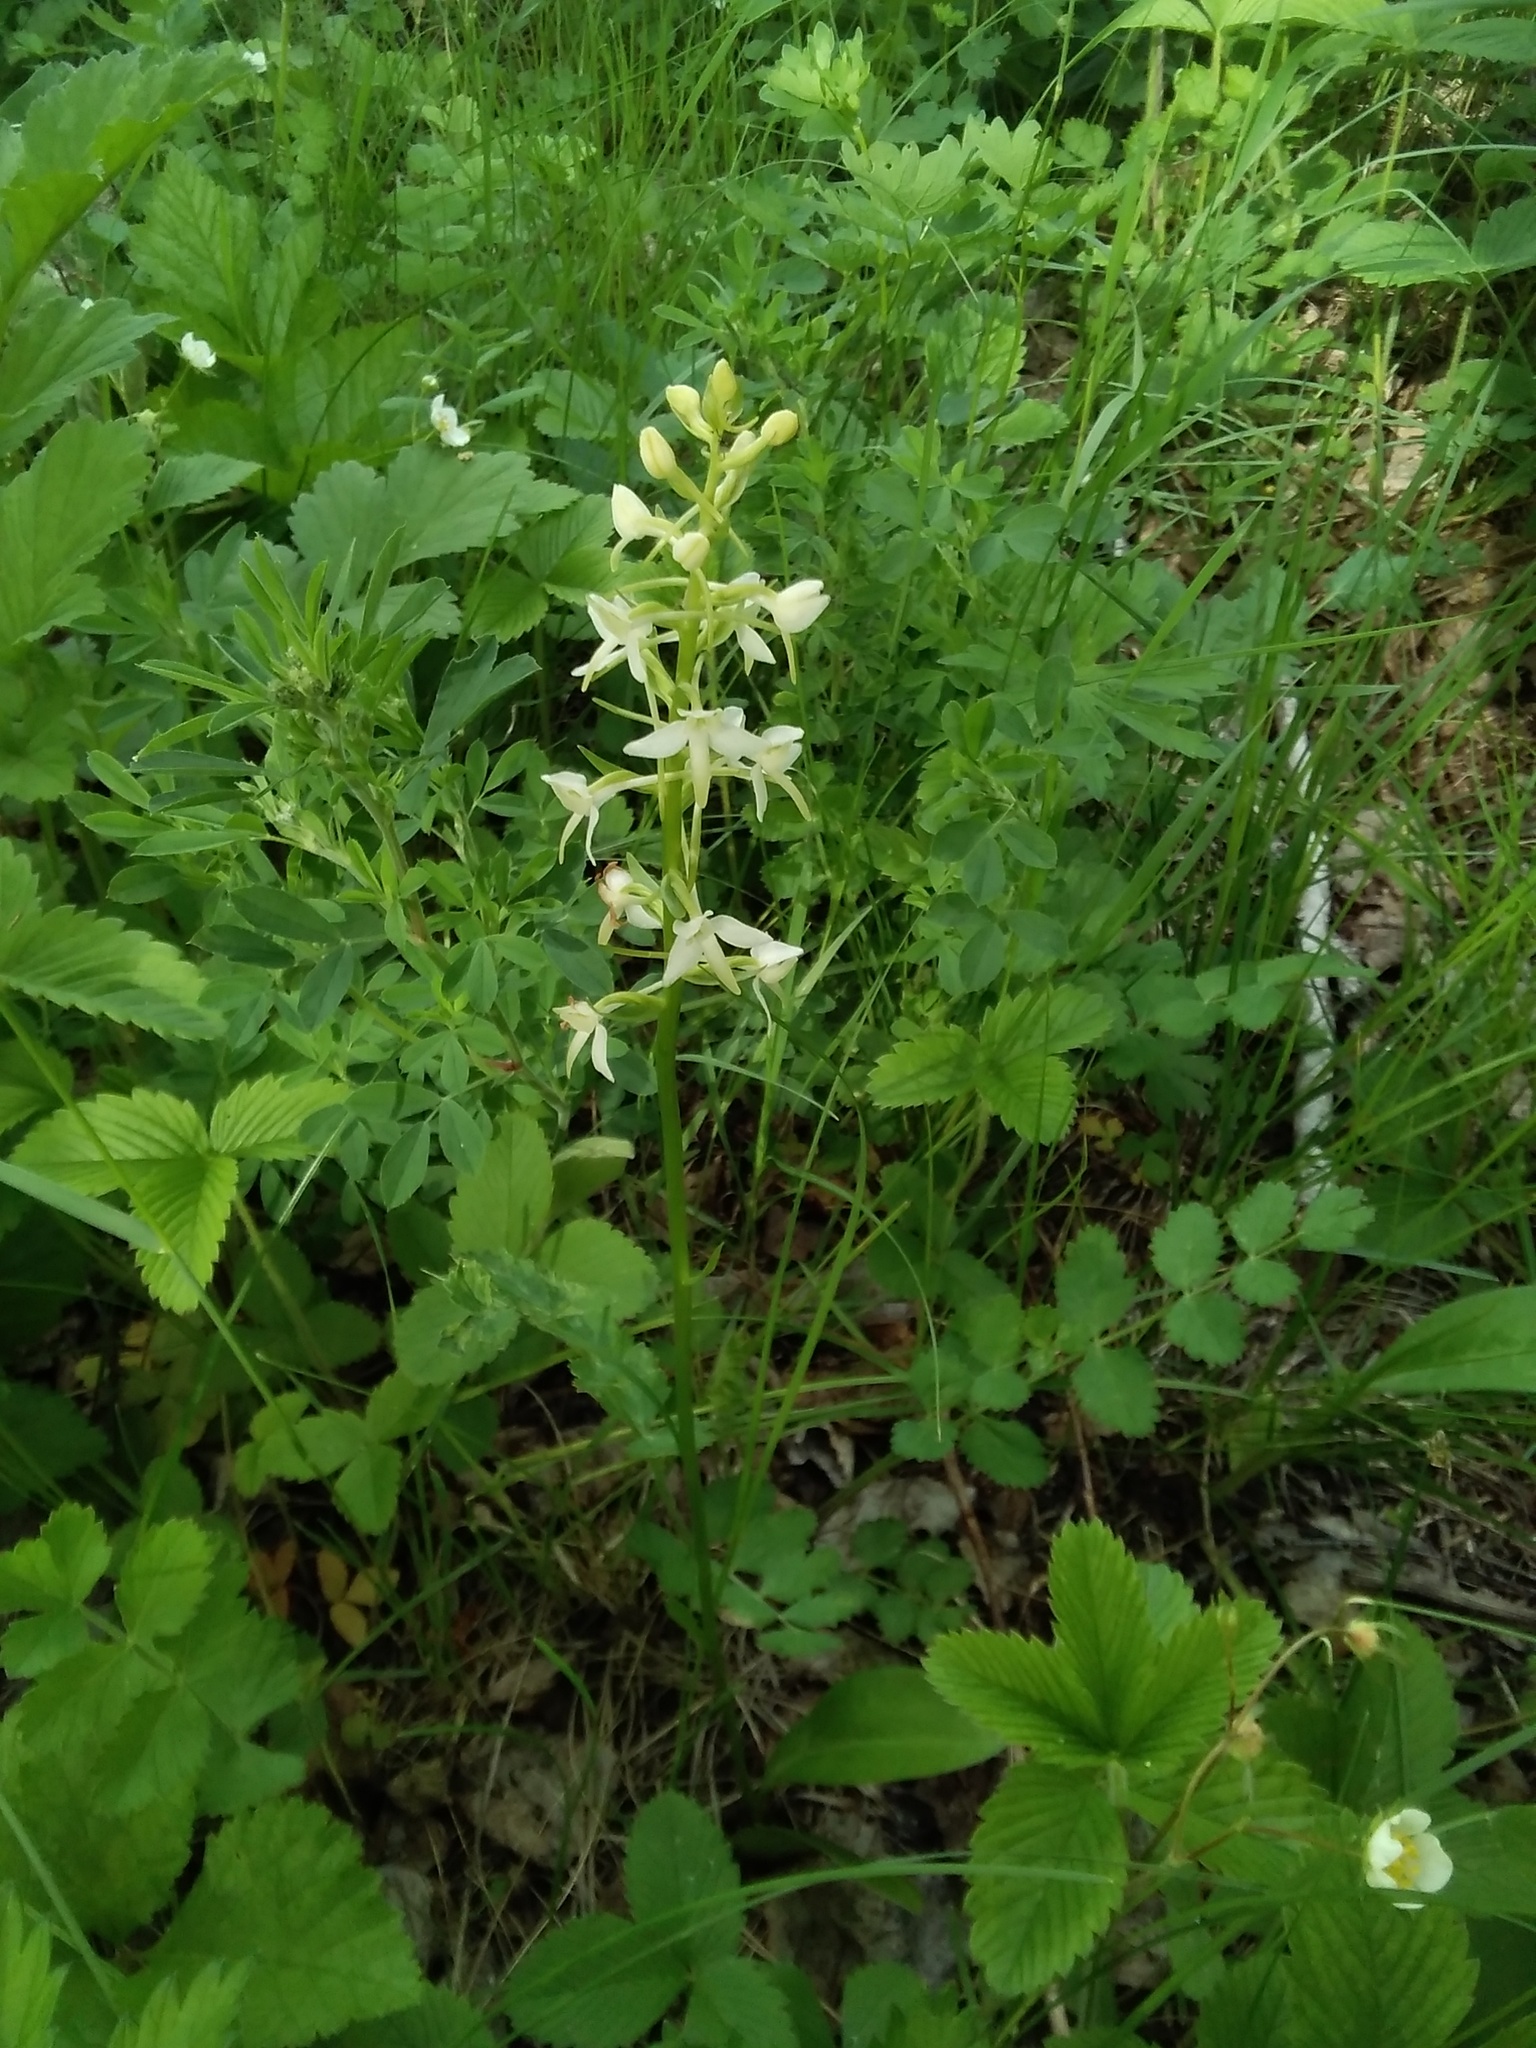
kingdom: Plantae
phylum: Tracheophyta
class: Liliopsida
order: Asparagales
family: Orchidaceae
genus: Platanthera
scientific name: Platanthera bifolia
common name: Lesser butterfly-orchid
